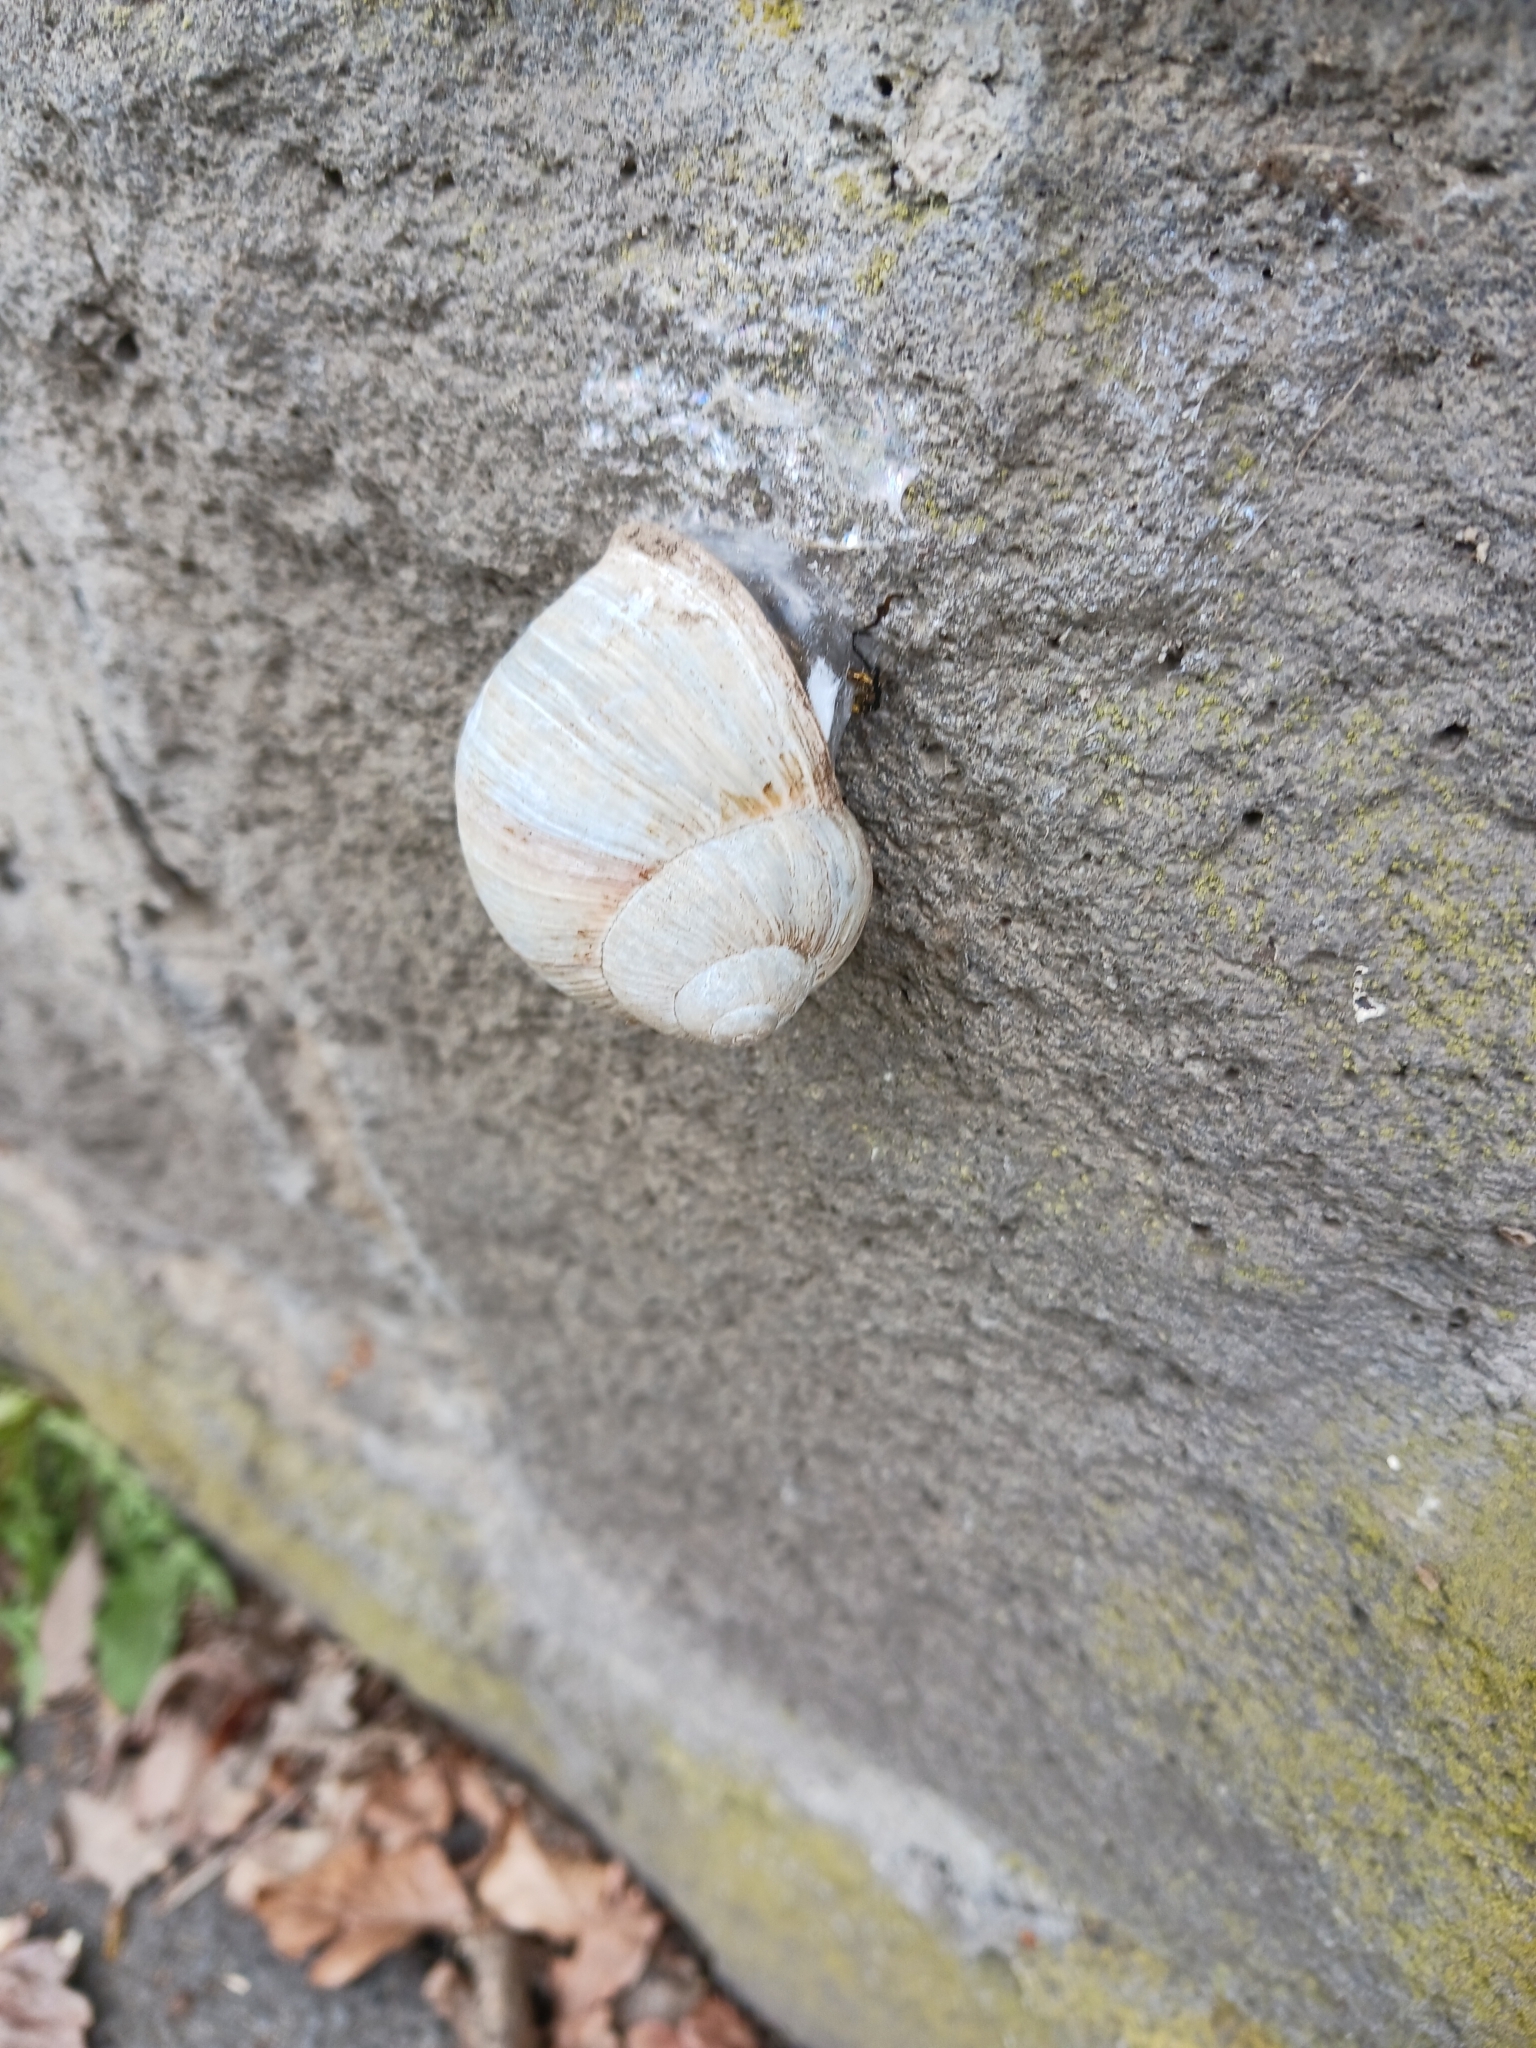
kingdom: Animalia
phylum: Mollusca
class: Gastropoda
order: Stylommatophora
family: Helicidae
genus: Helix
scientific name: Helix pomatia
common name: Roman snail
